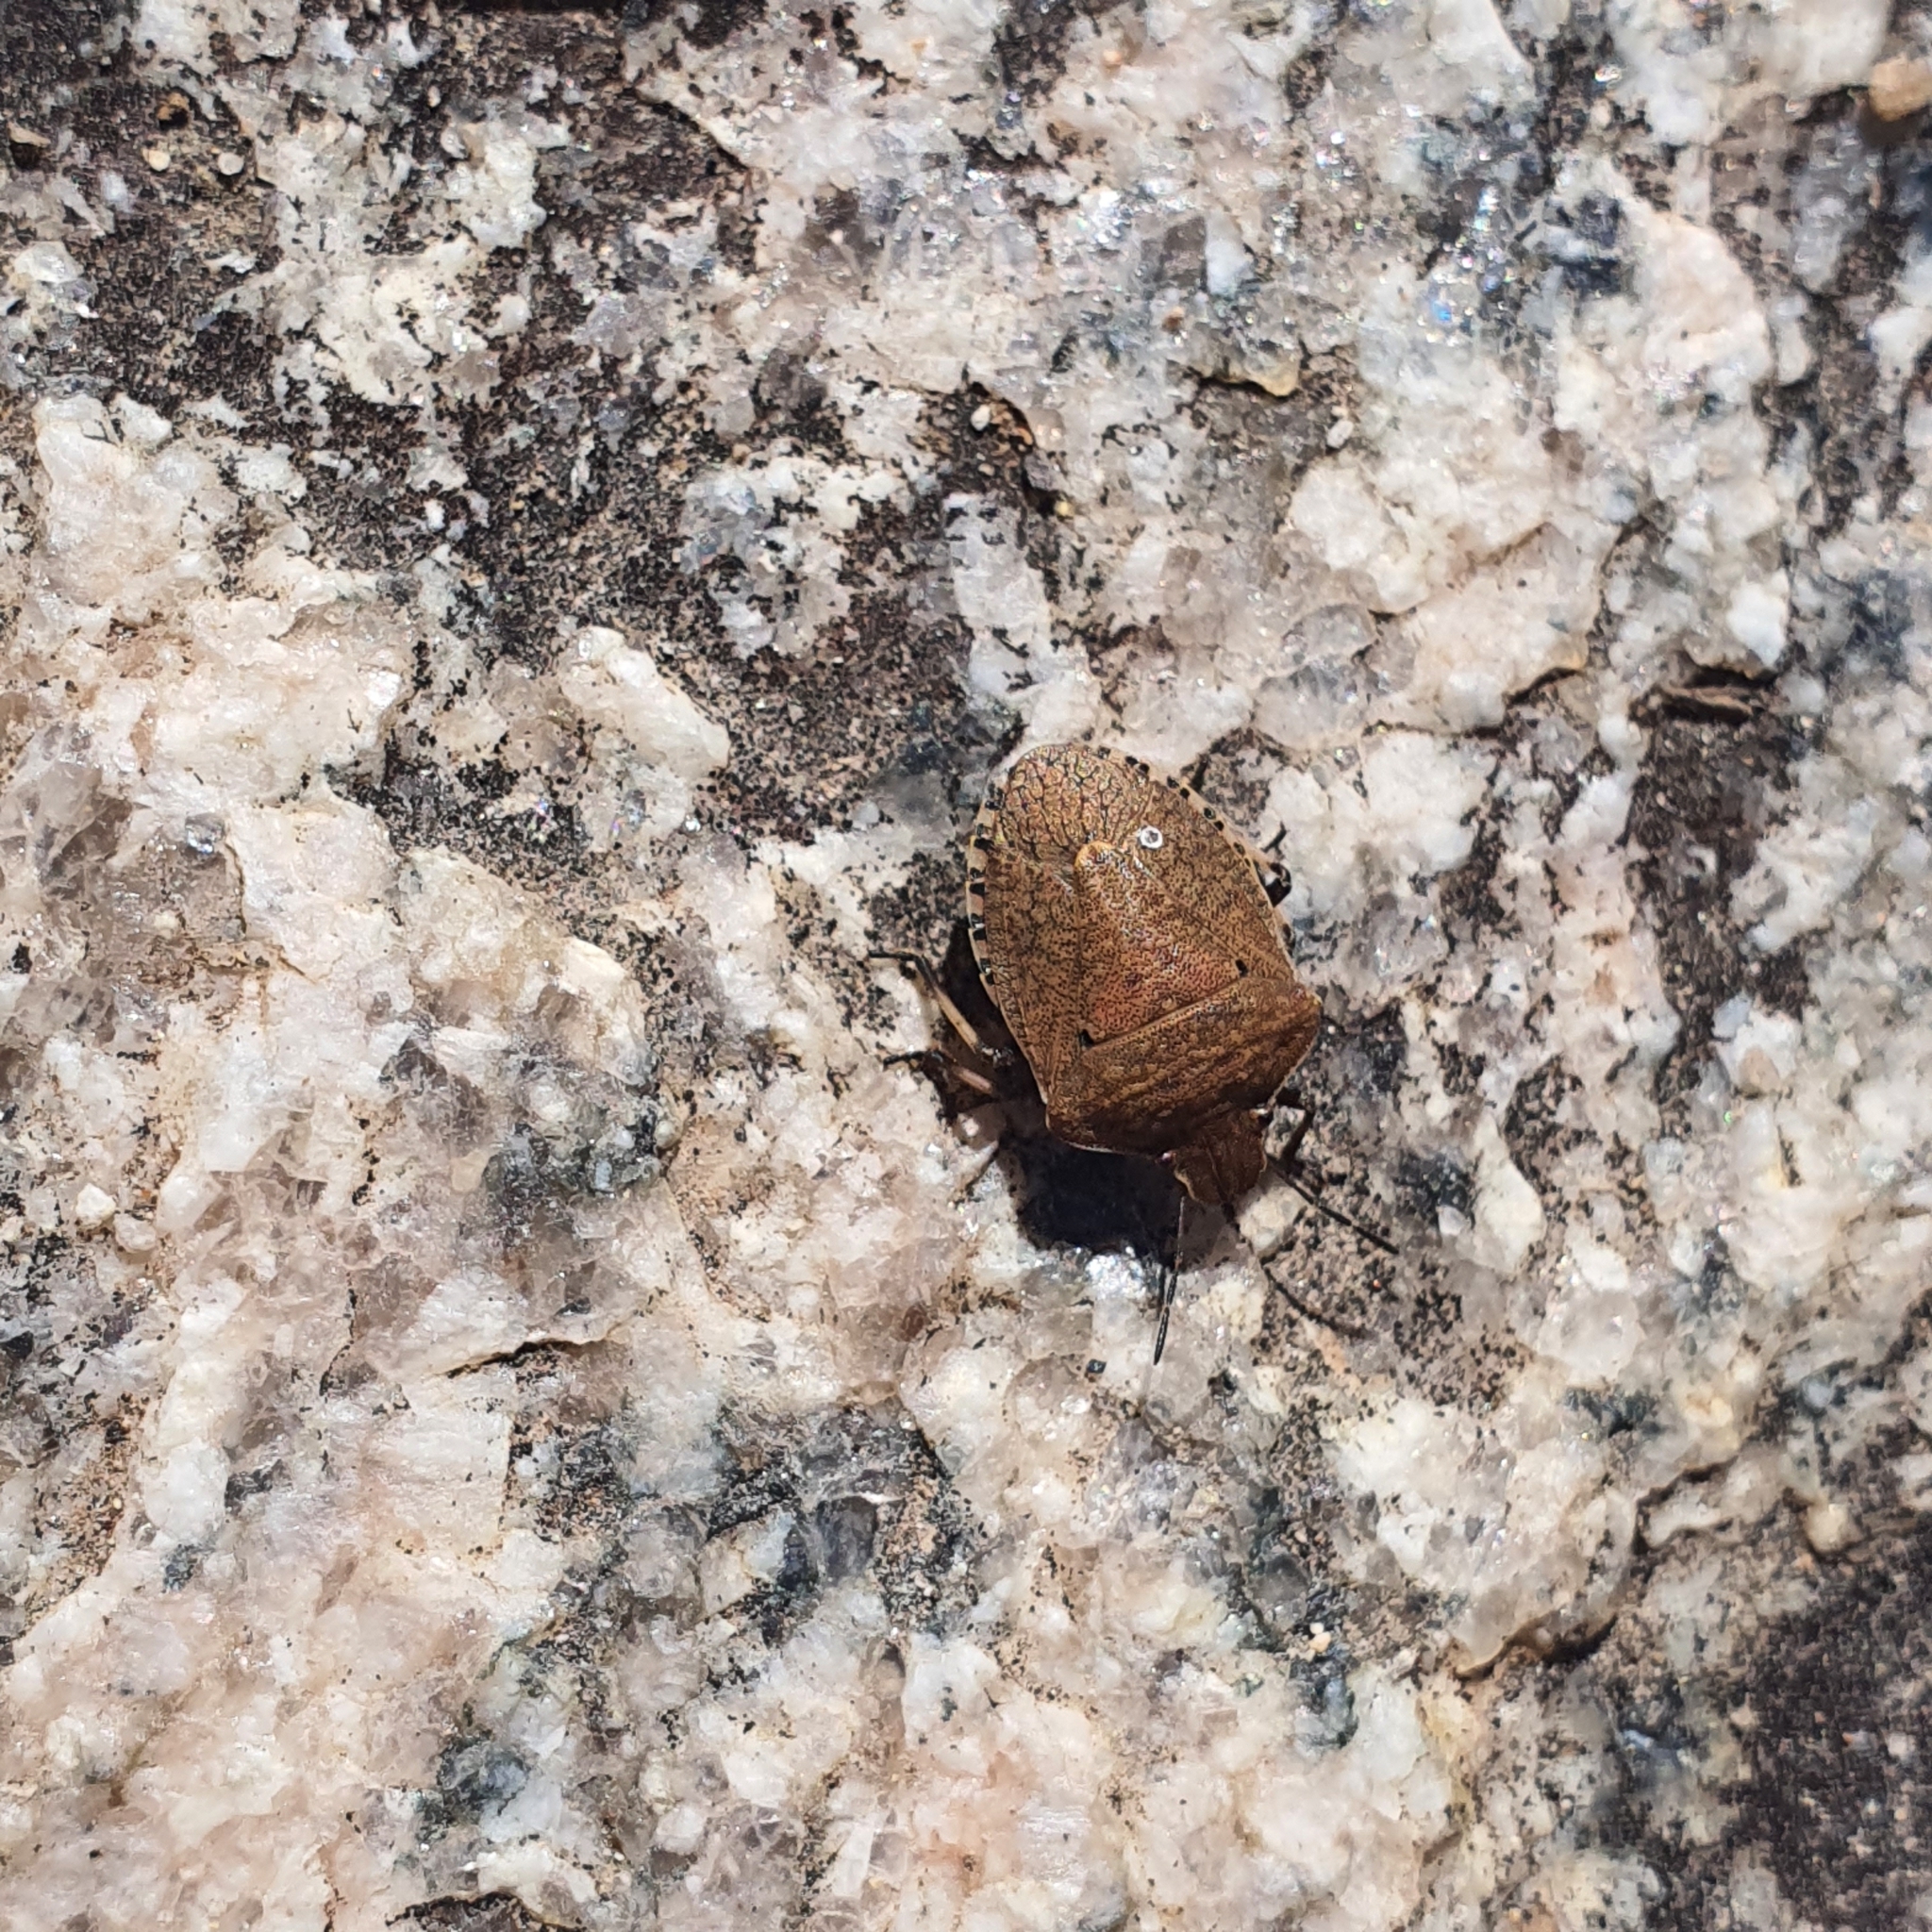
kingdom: Animalia
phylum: Arthropoda
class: Insecta
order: Hemiptera
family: Pentatomidae
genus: Dictyotus
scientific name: Dictyotus caenosus
